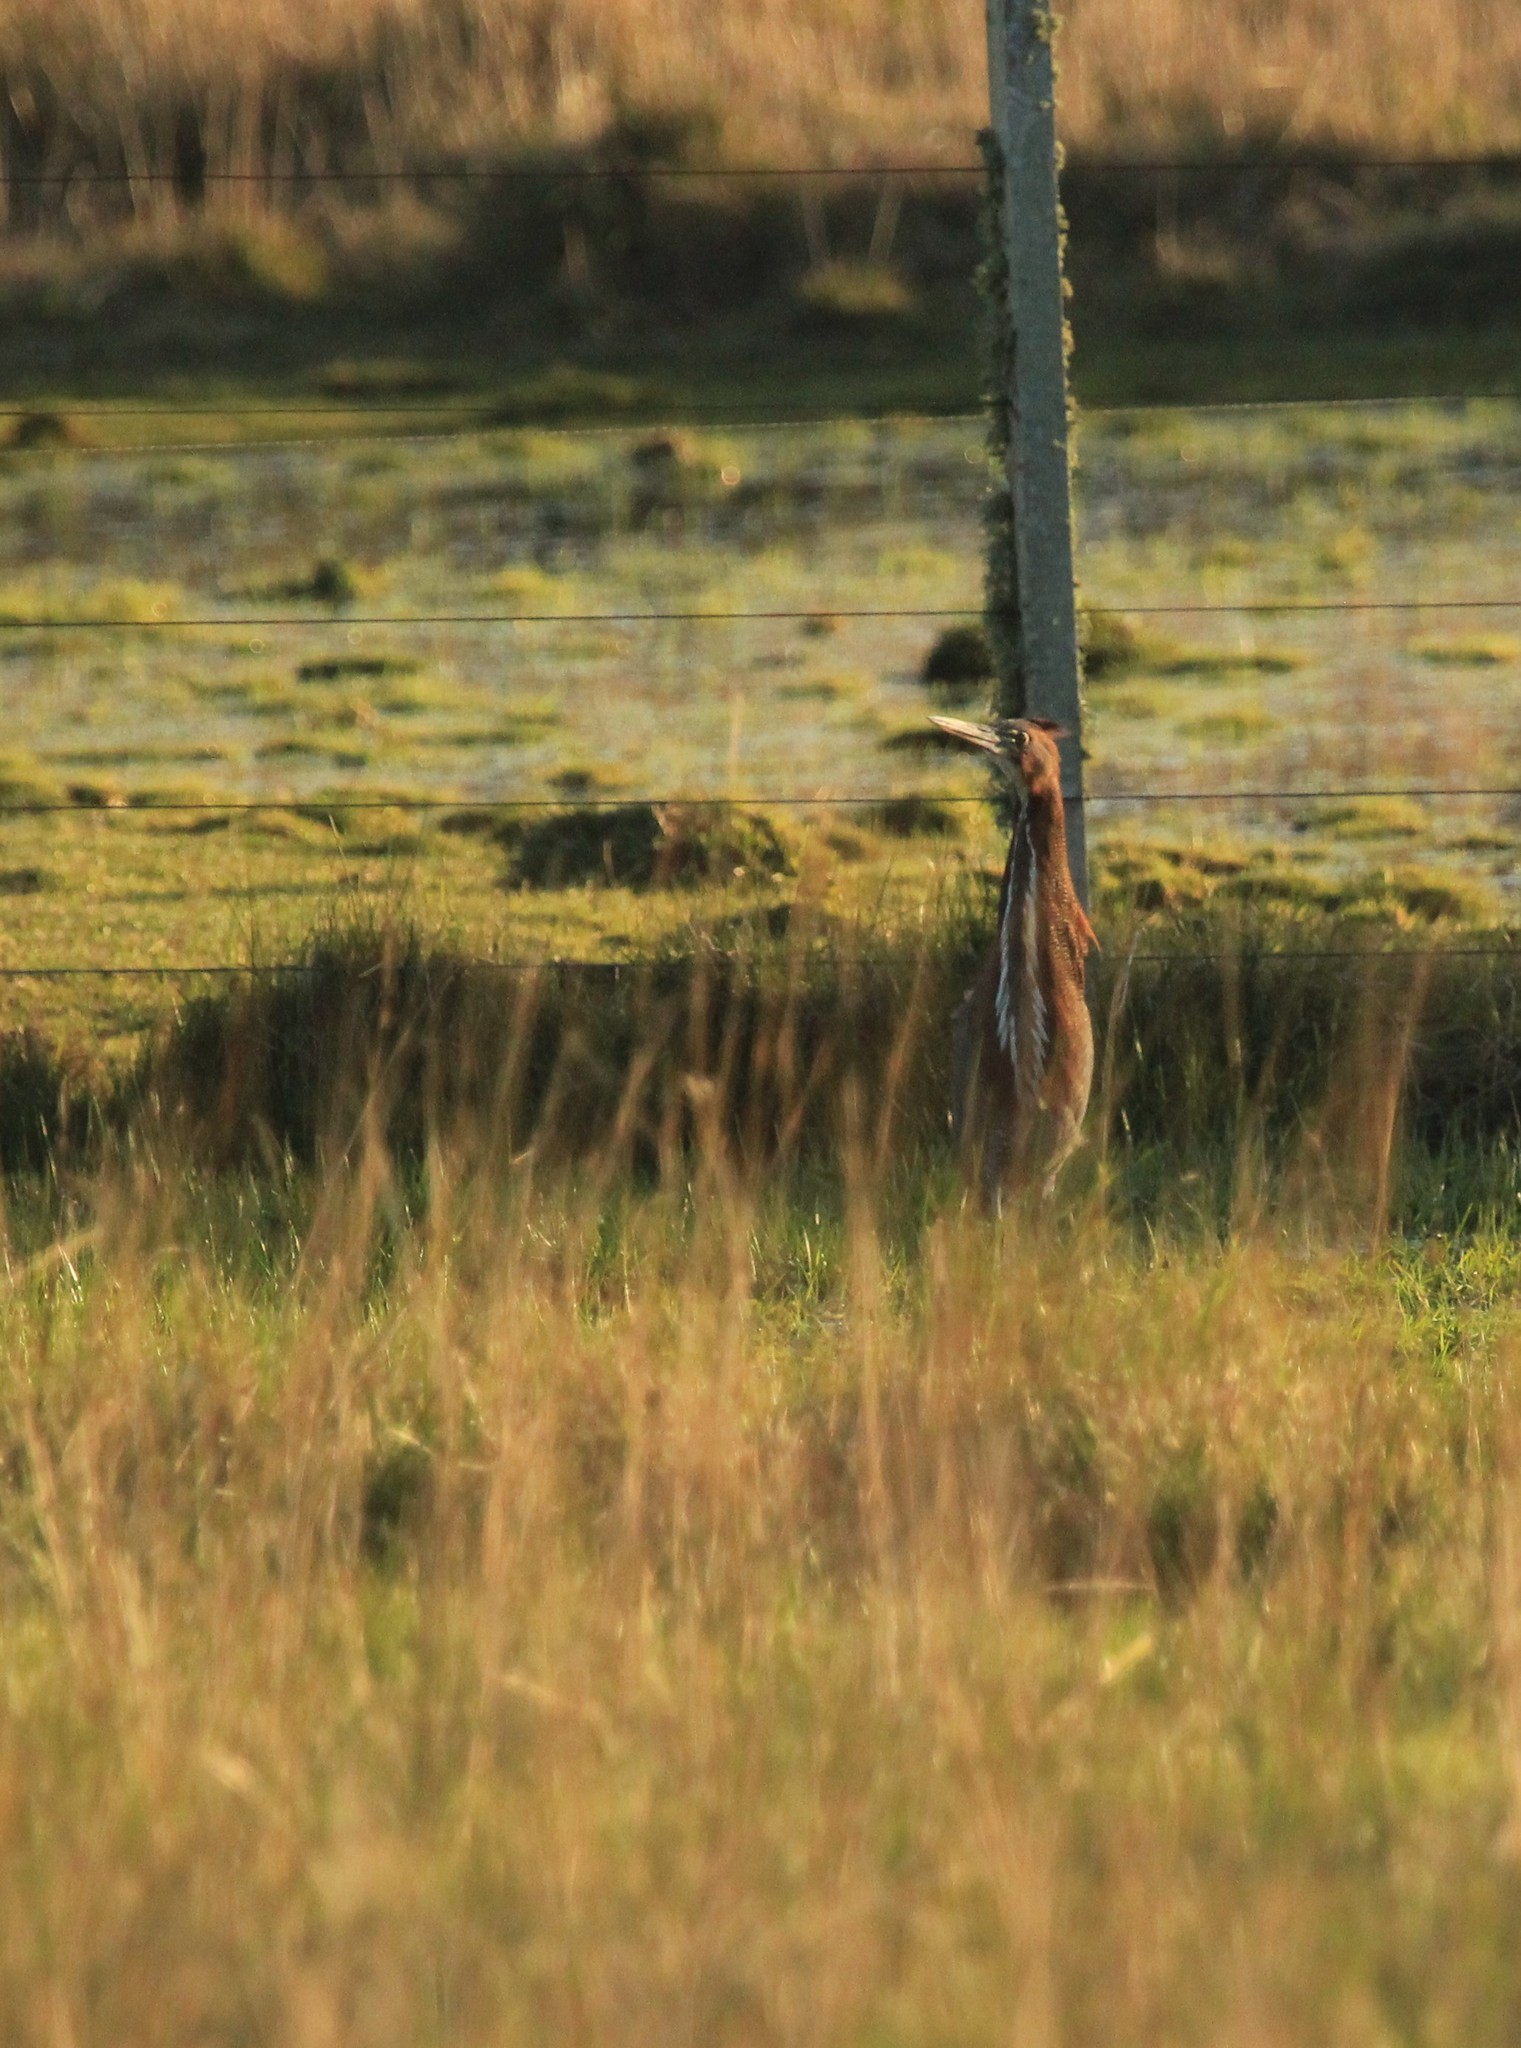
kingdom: Animalia
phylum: Chordata
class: Aves
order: Pelecaniformes
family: Ardeidae
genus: Tigrisoma
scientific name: Tigrisoma lineatum
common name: Rufescent tiger-heron
